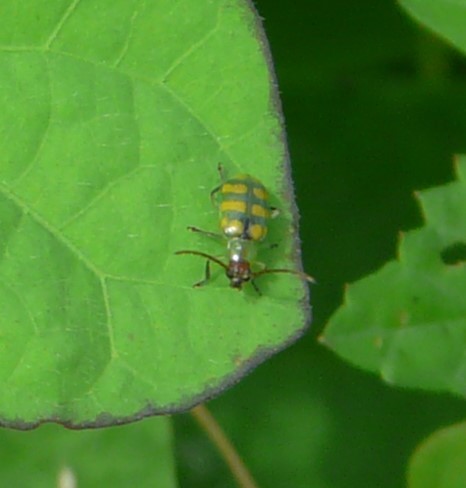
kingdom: Animalia
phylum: Arthropoda
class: Insecta
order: Coleoptera
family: Chrysomelidae
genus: Diabrotica
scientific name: Diabrotica balteata
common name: Leaf beetle
